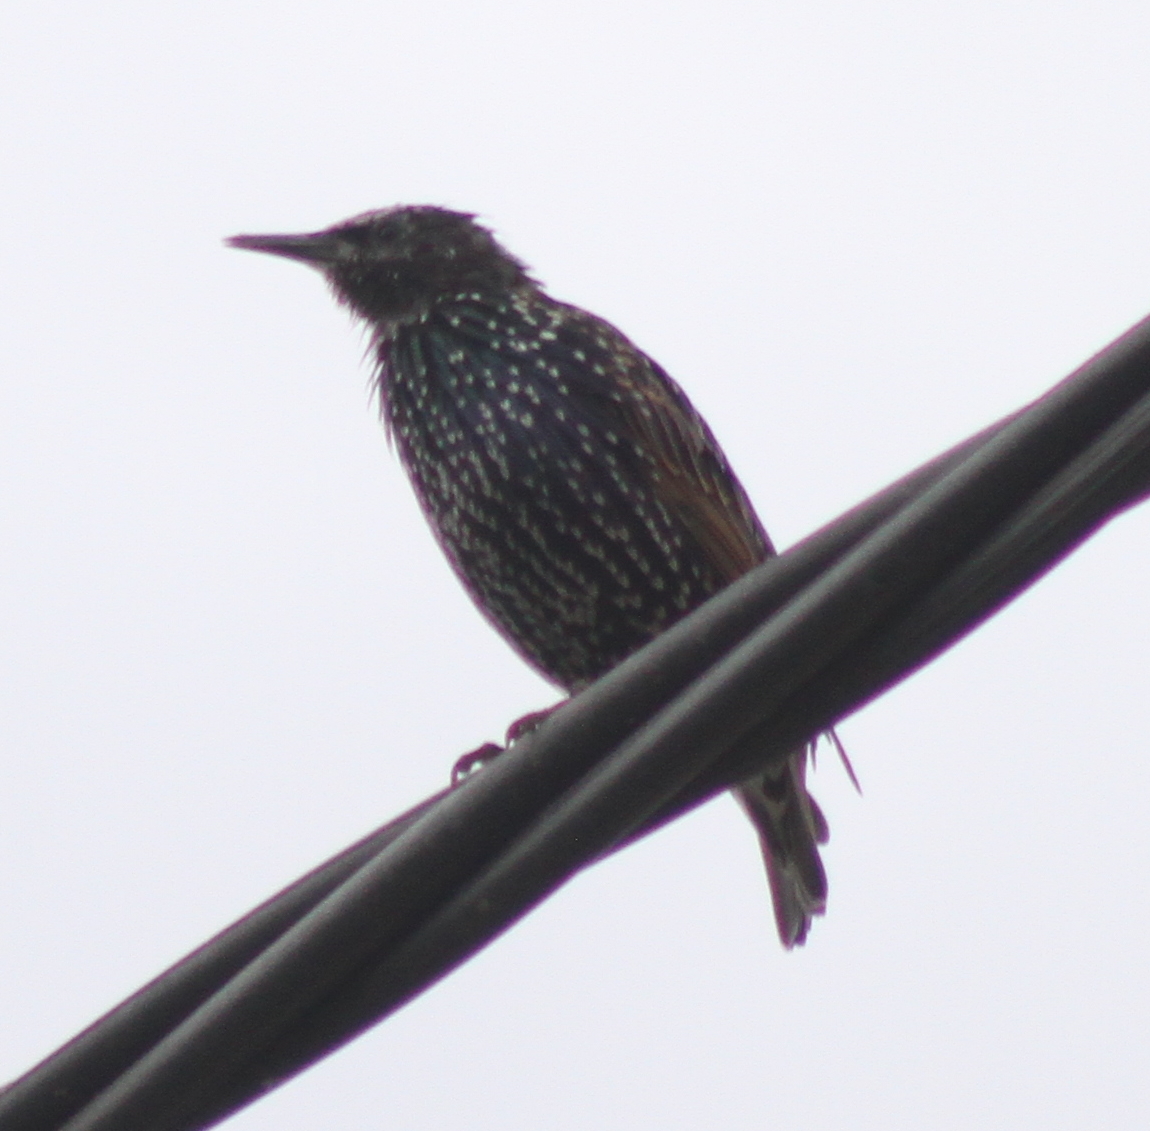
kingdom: Animalia
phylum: Chordata
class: Aves
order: Passeriformes
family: Sturnidae
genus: Sturnus
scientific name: Sturnus vulgaris
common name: Common starling
